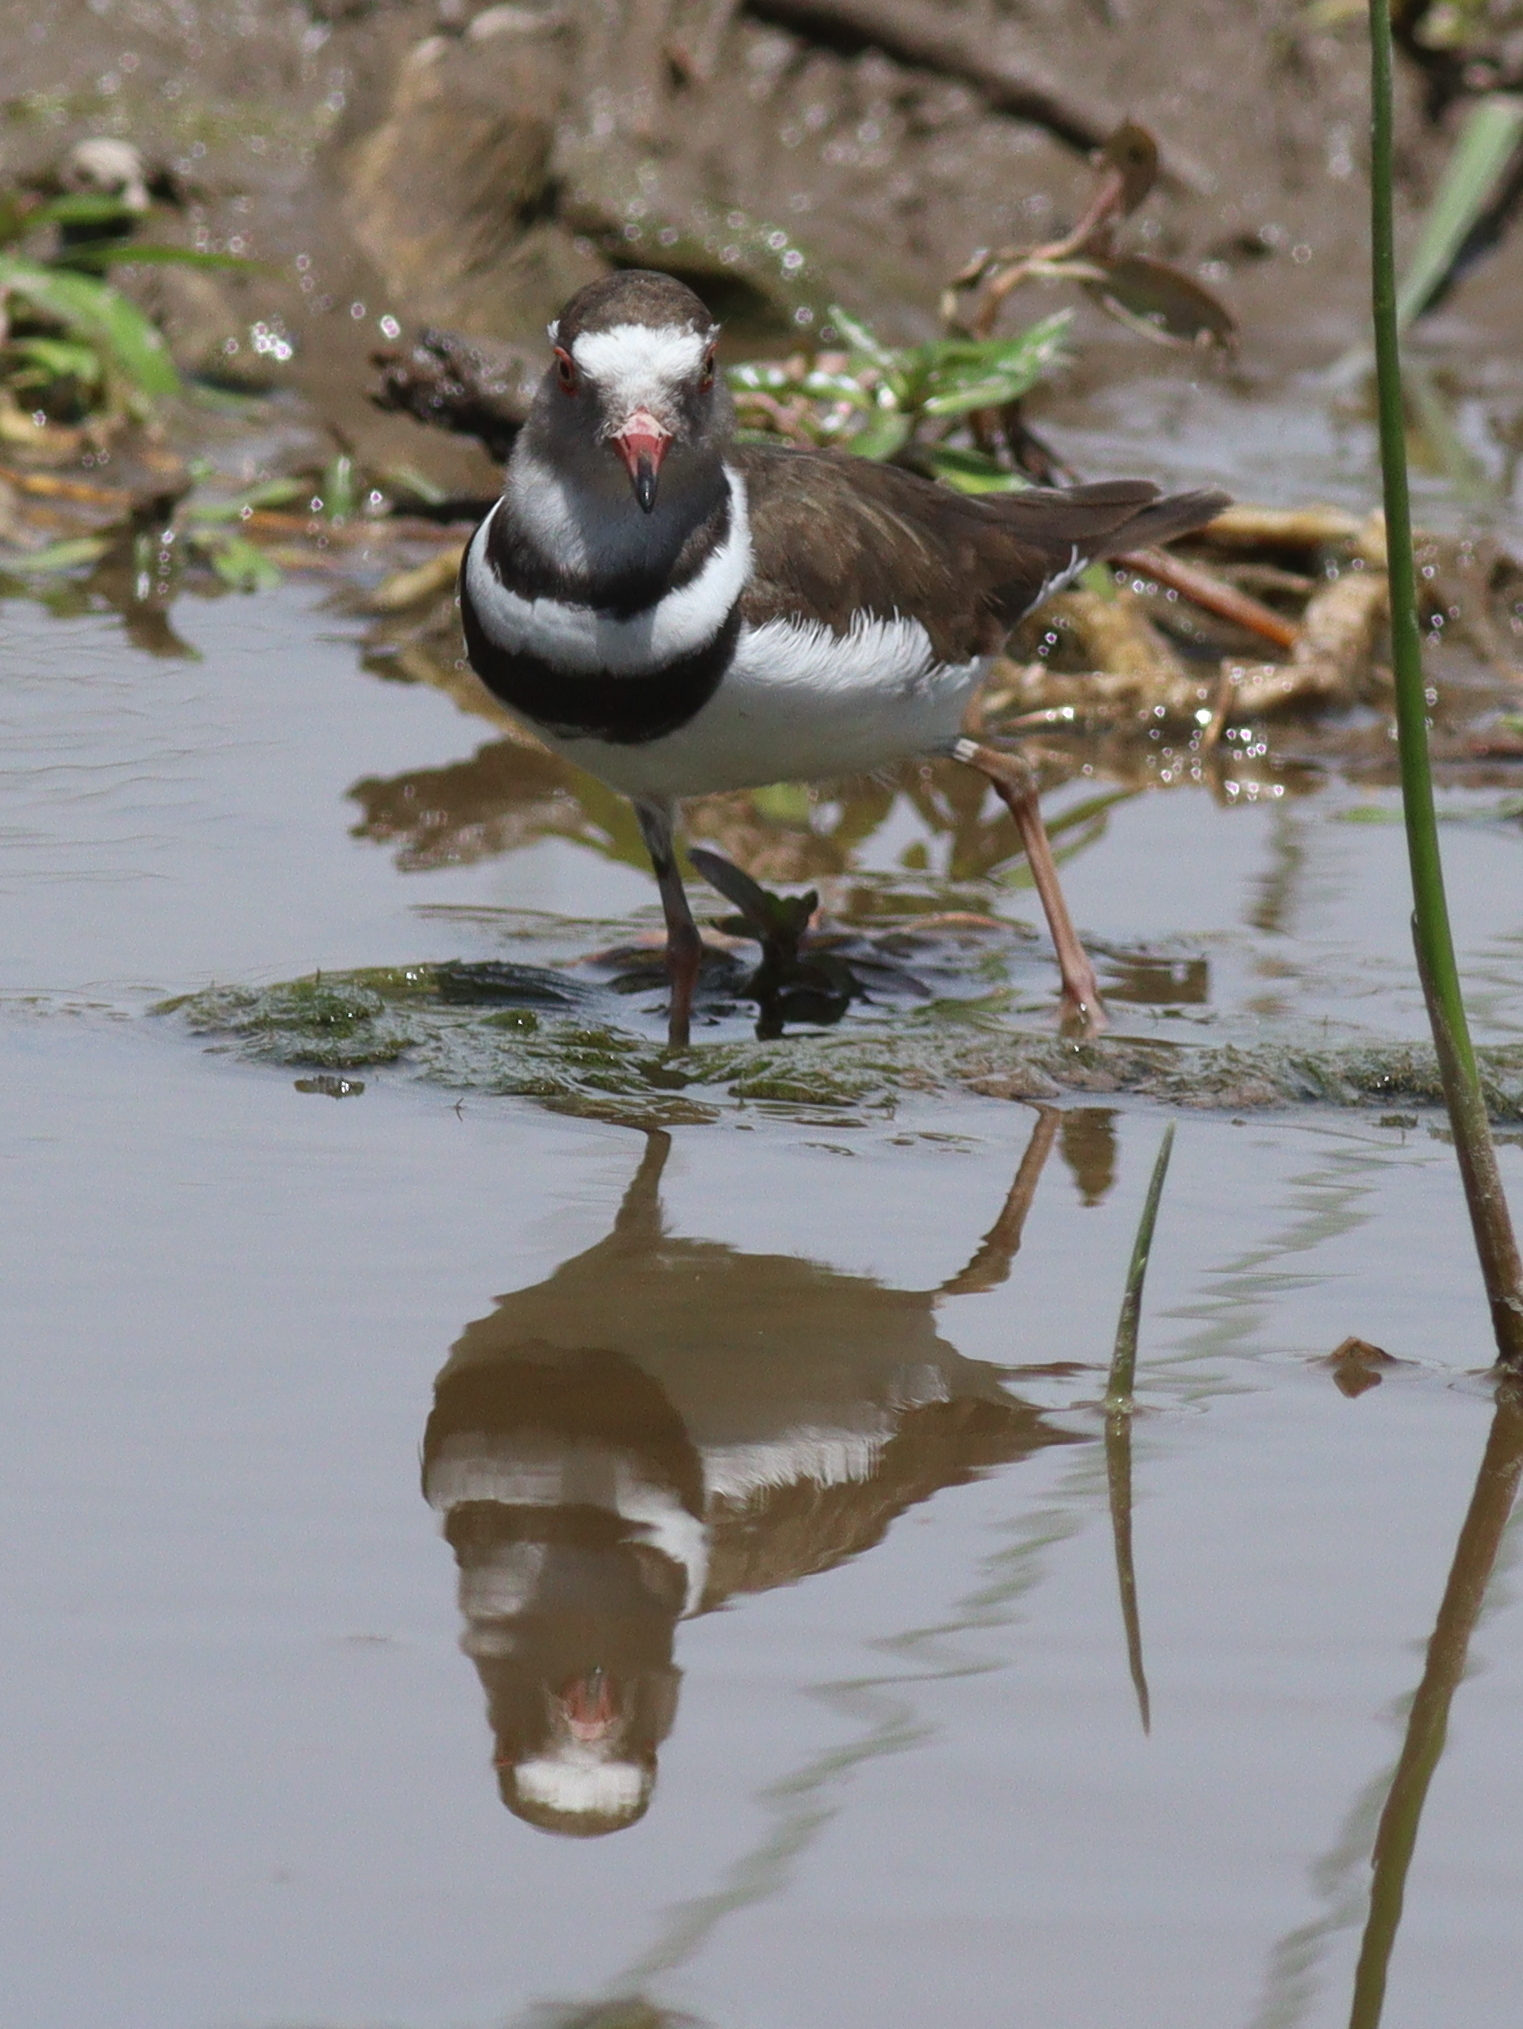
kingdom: Animalia
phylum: Chordata
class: Aves
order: Charadriiformes
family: Charadriidae
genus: Charadrius
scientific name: Charadrius tricollaris
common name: Three-banded plover
